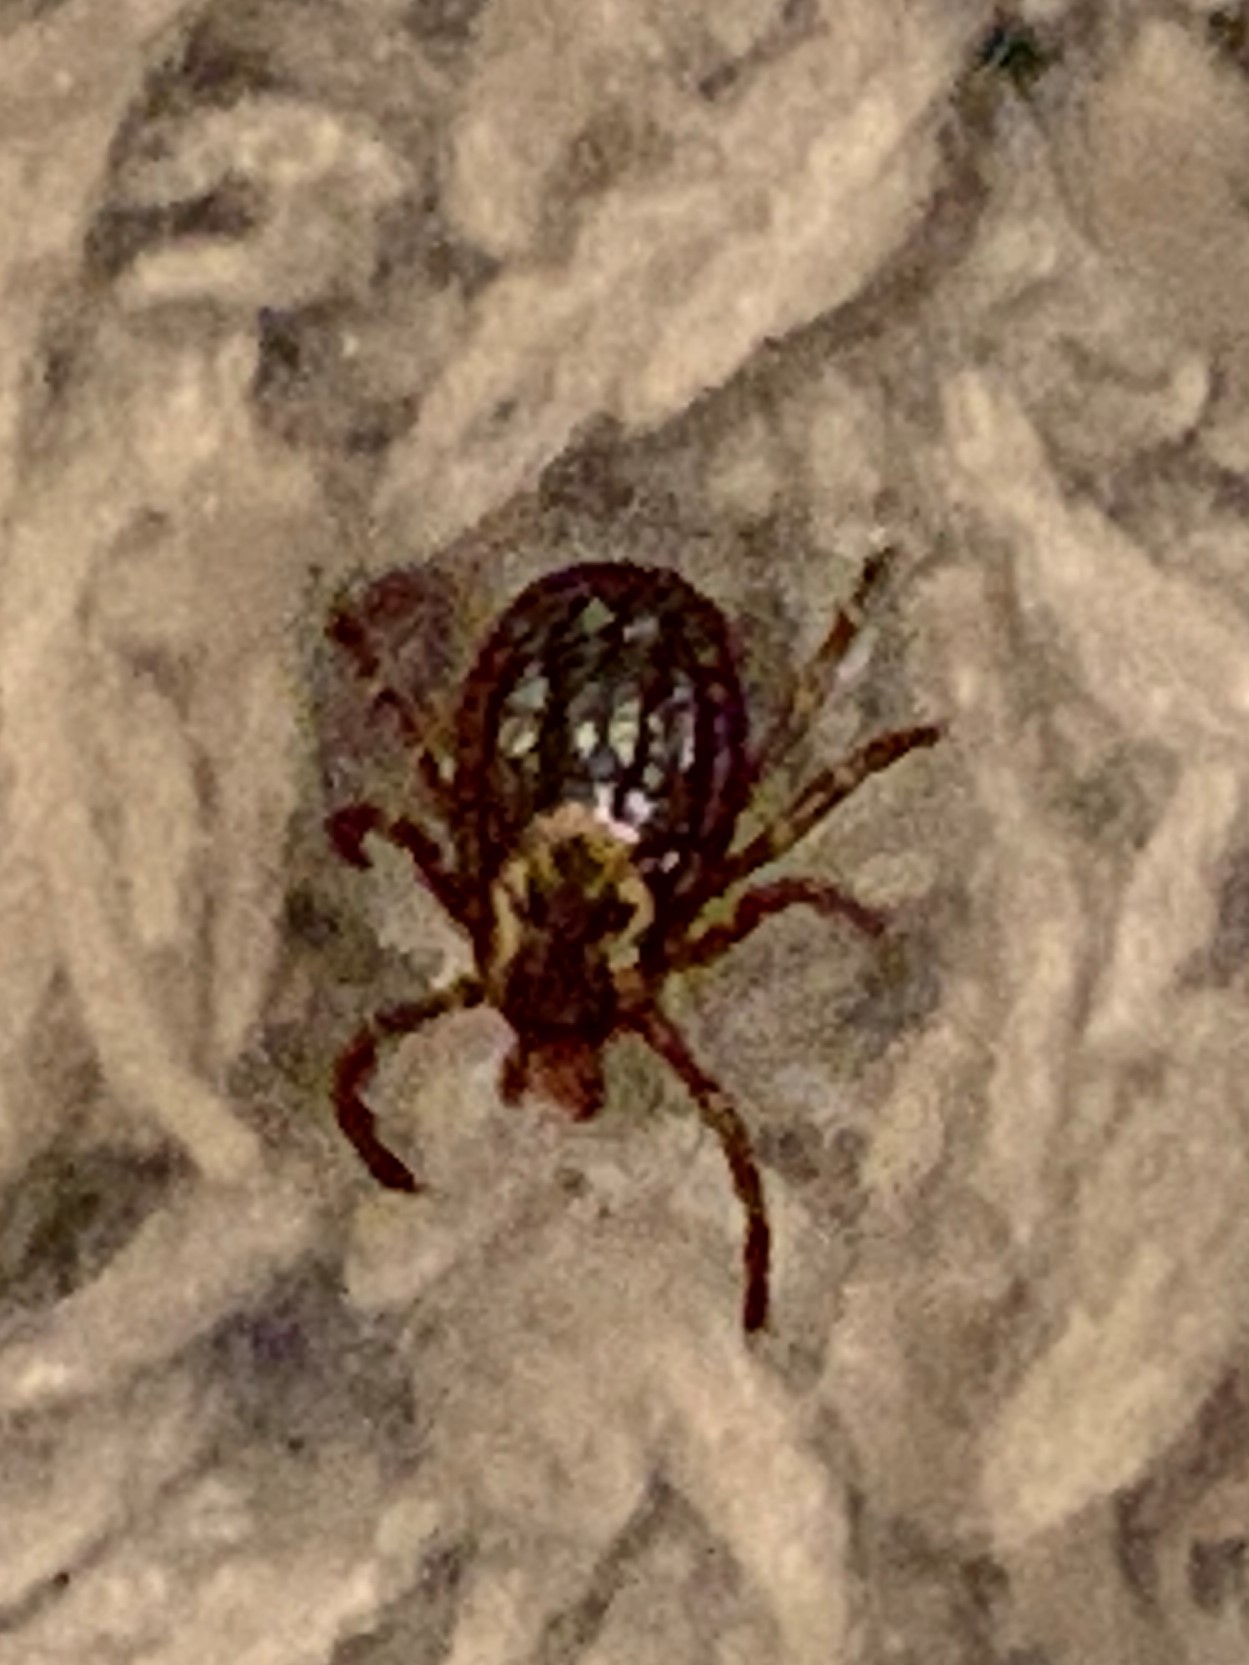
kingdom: Animalia
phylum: Arthropoda
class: Arachnida
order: Ixodida
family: Ixodidae
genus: Dermacentor
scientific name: Dermacentor variabilis
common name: American dog tick
